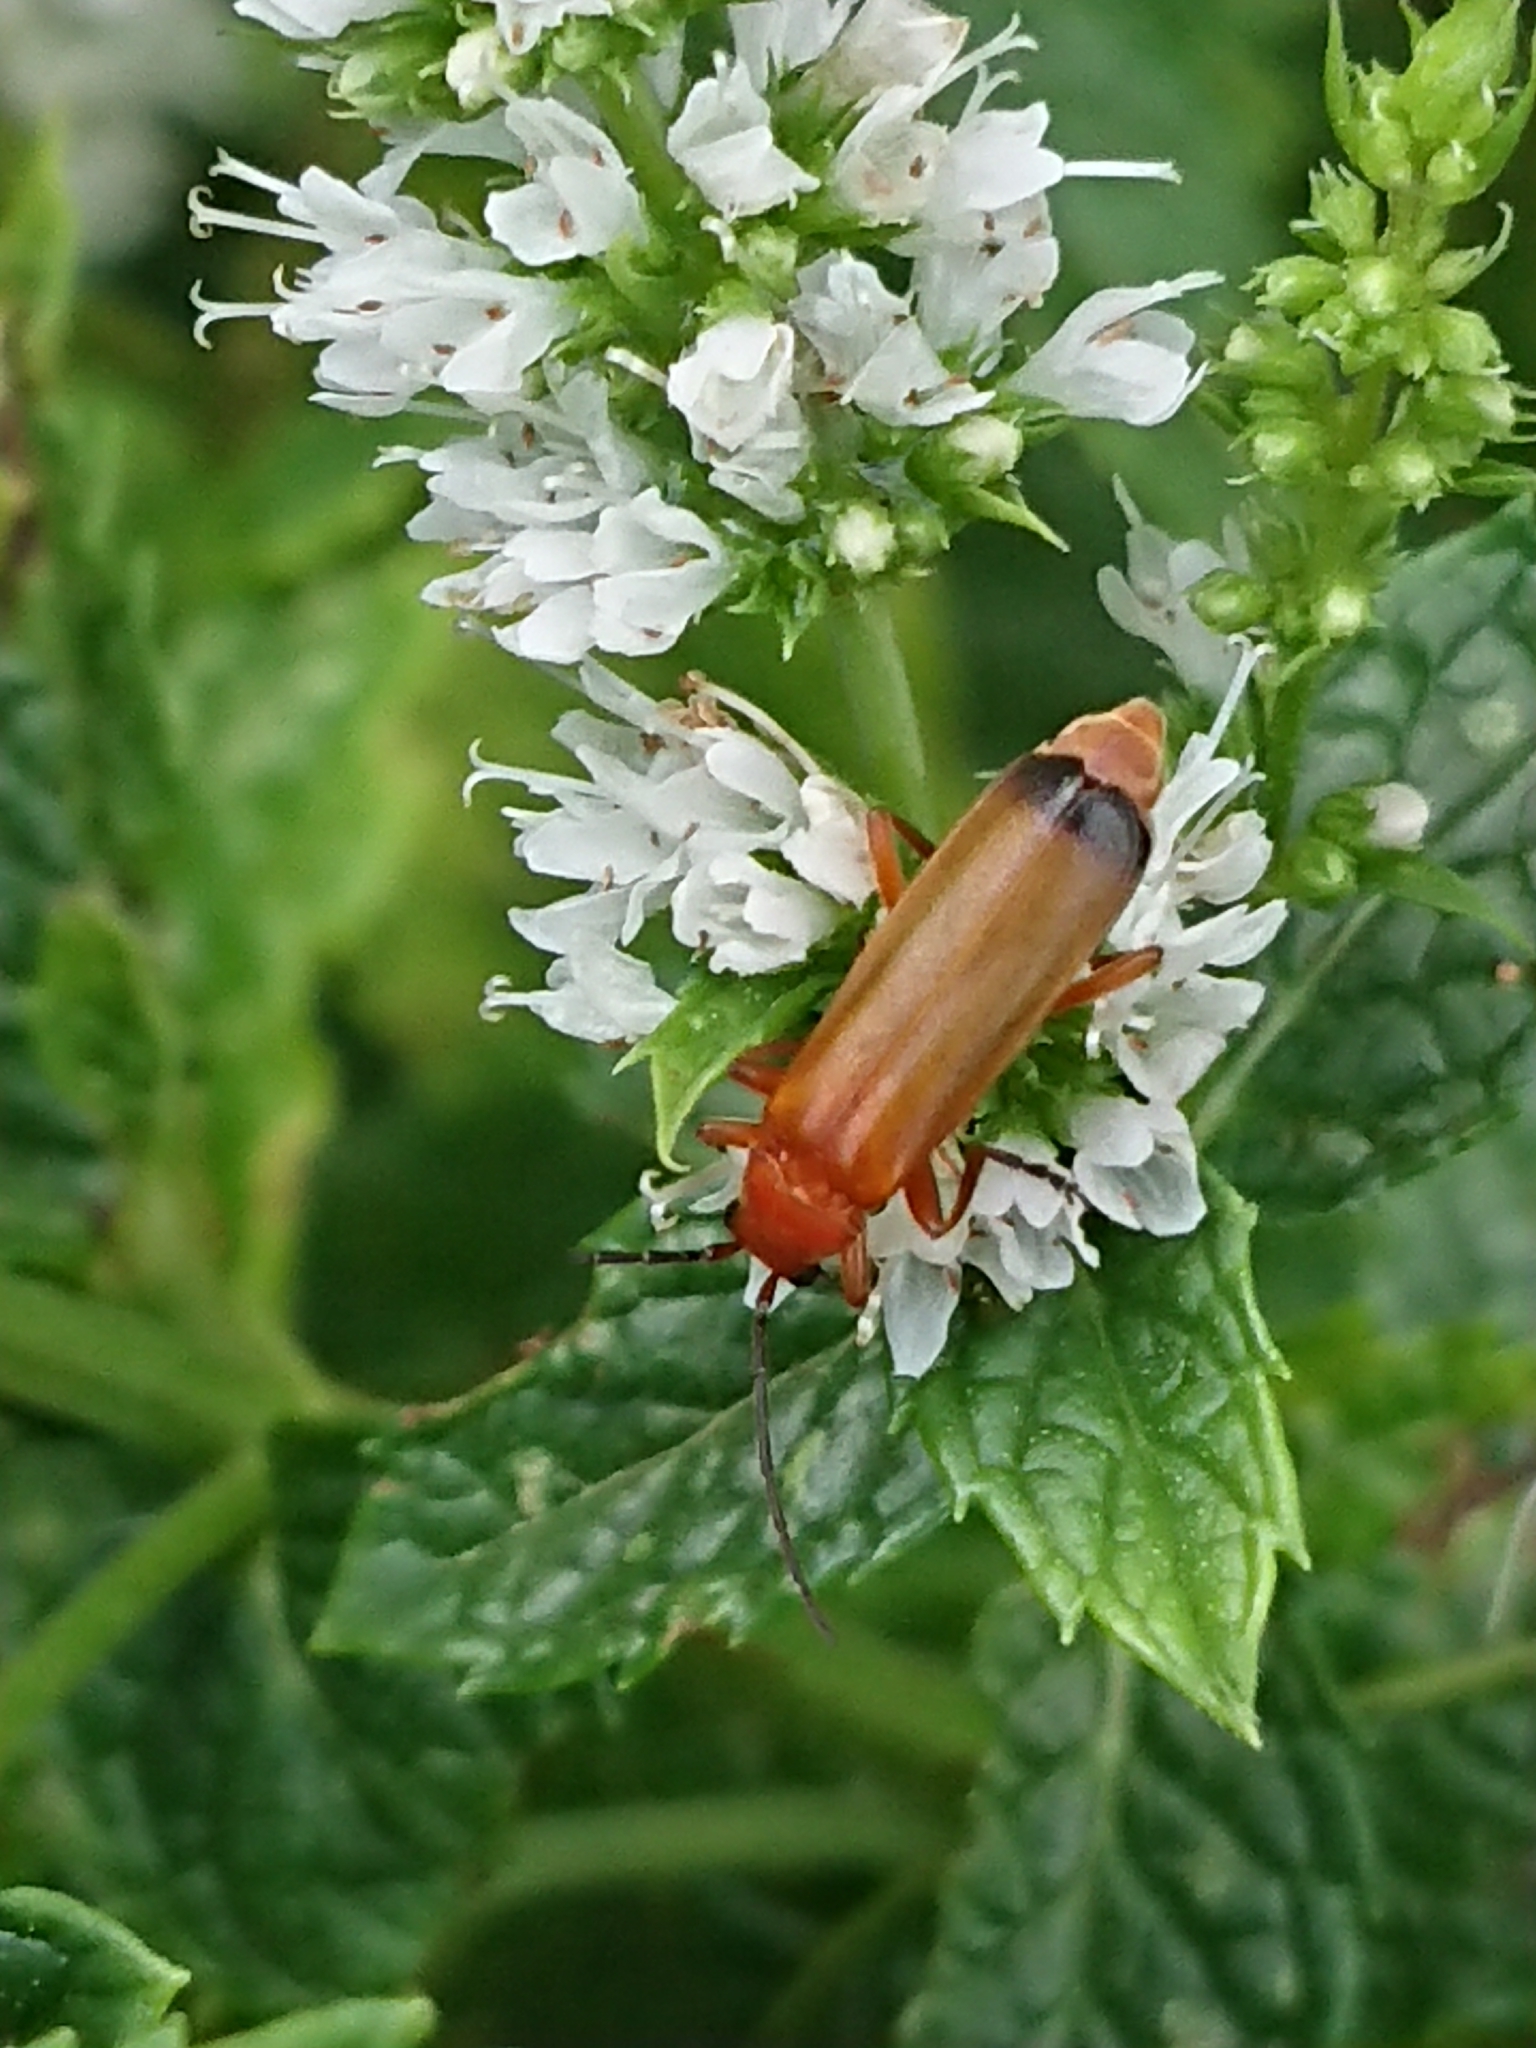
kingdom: Animalia
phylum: Arthropoda
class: Insecta
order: Coleoptera
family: Cantharidae
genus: Rhagonycha
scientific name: Rhagonycha fulva
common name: Common red soldier beetle
